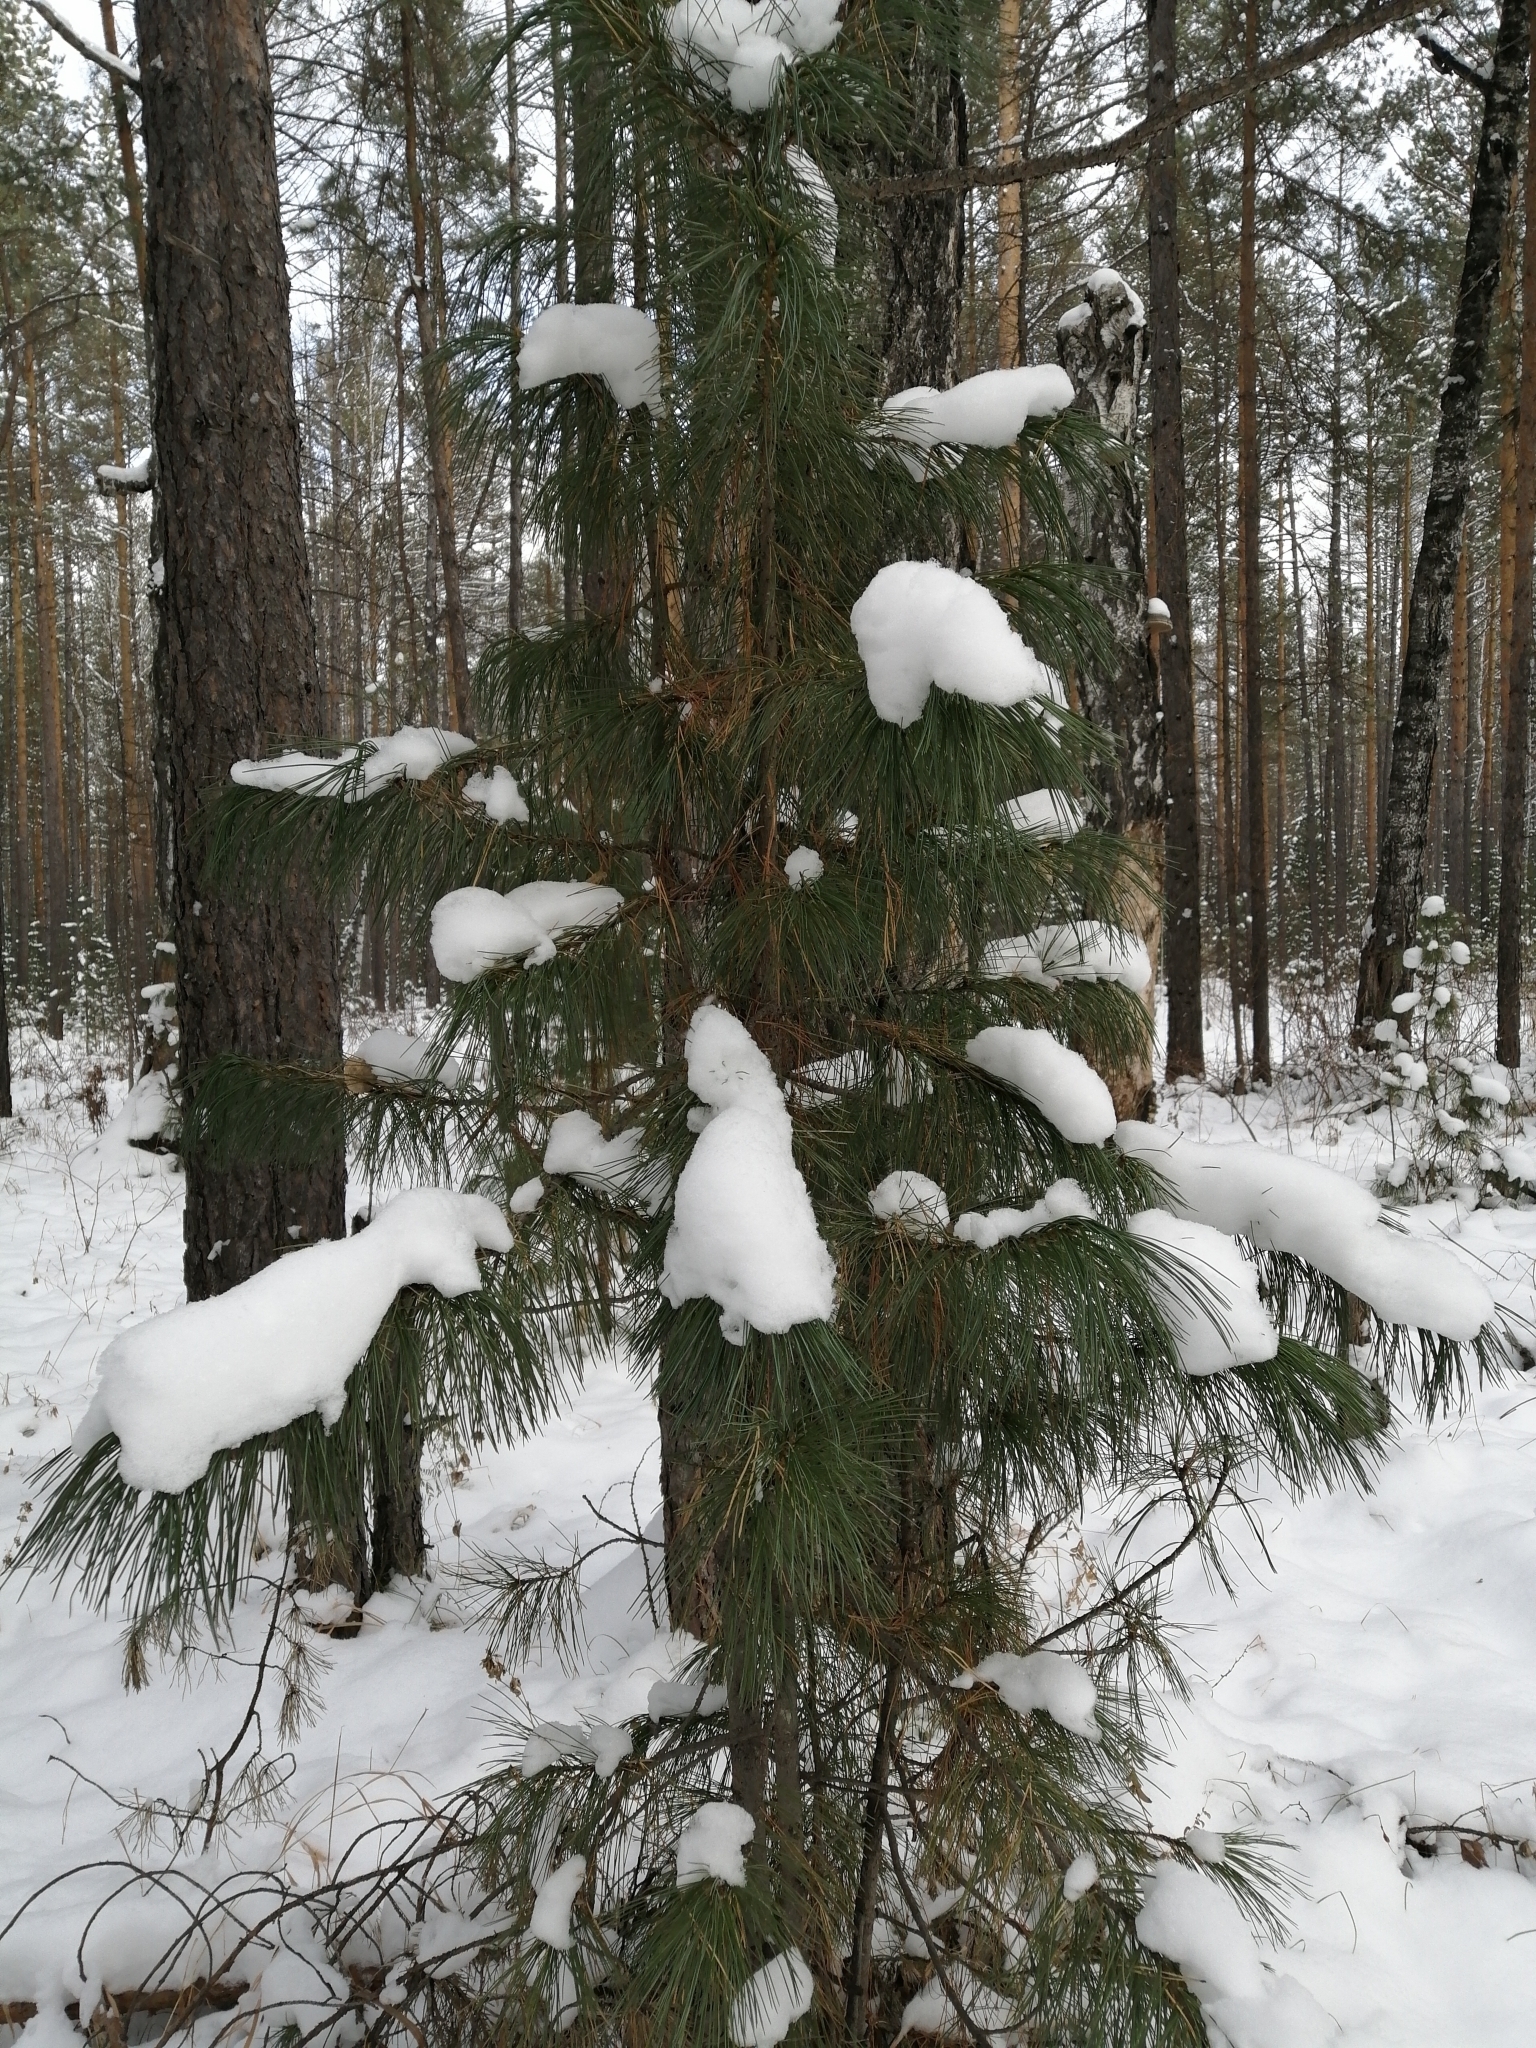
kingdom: Plantae
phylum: Tracheophyta
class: Pinopsida
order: Pinales
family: Pinaceae
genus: Pinus
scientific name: Pinus sibirica
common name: Siberian pine
